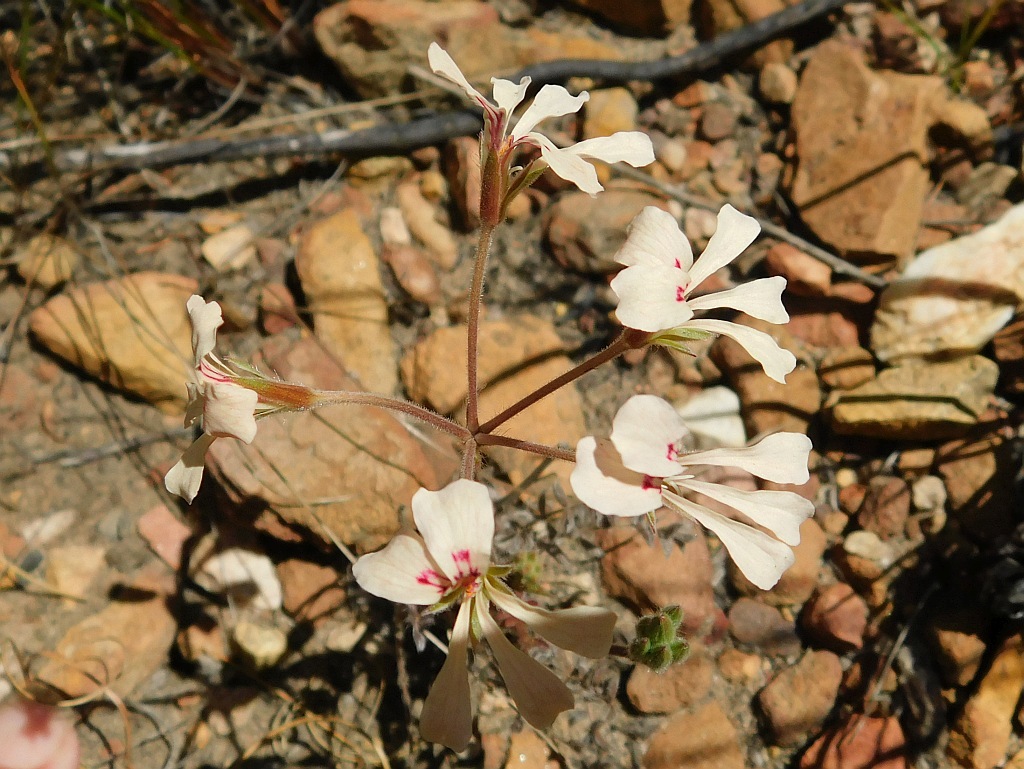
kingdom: Plantae
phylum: Tracheophyta
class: Magnoliopsida
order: Geraniales
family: Geraniaceae
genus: Pelargonium
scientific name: Pelargonium pinnatum
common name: Pinnated pelargonium
